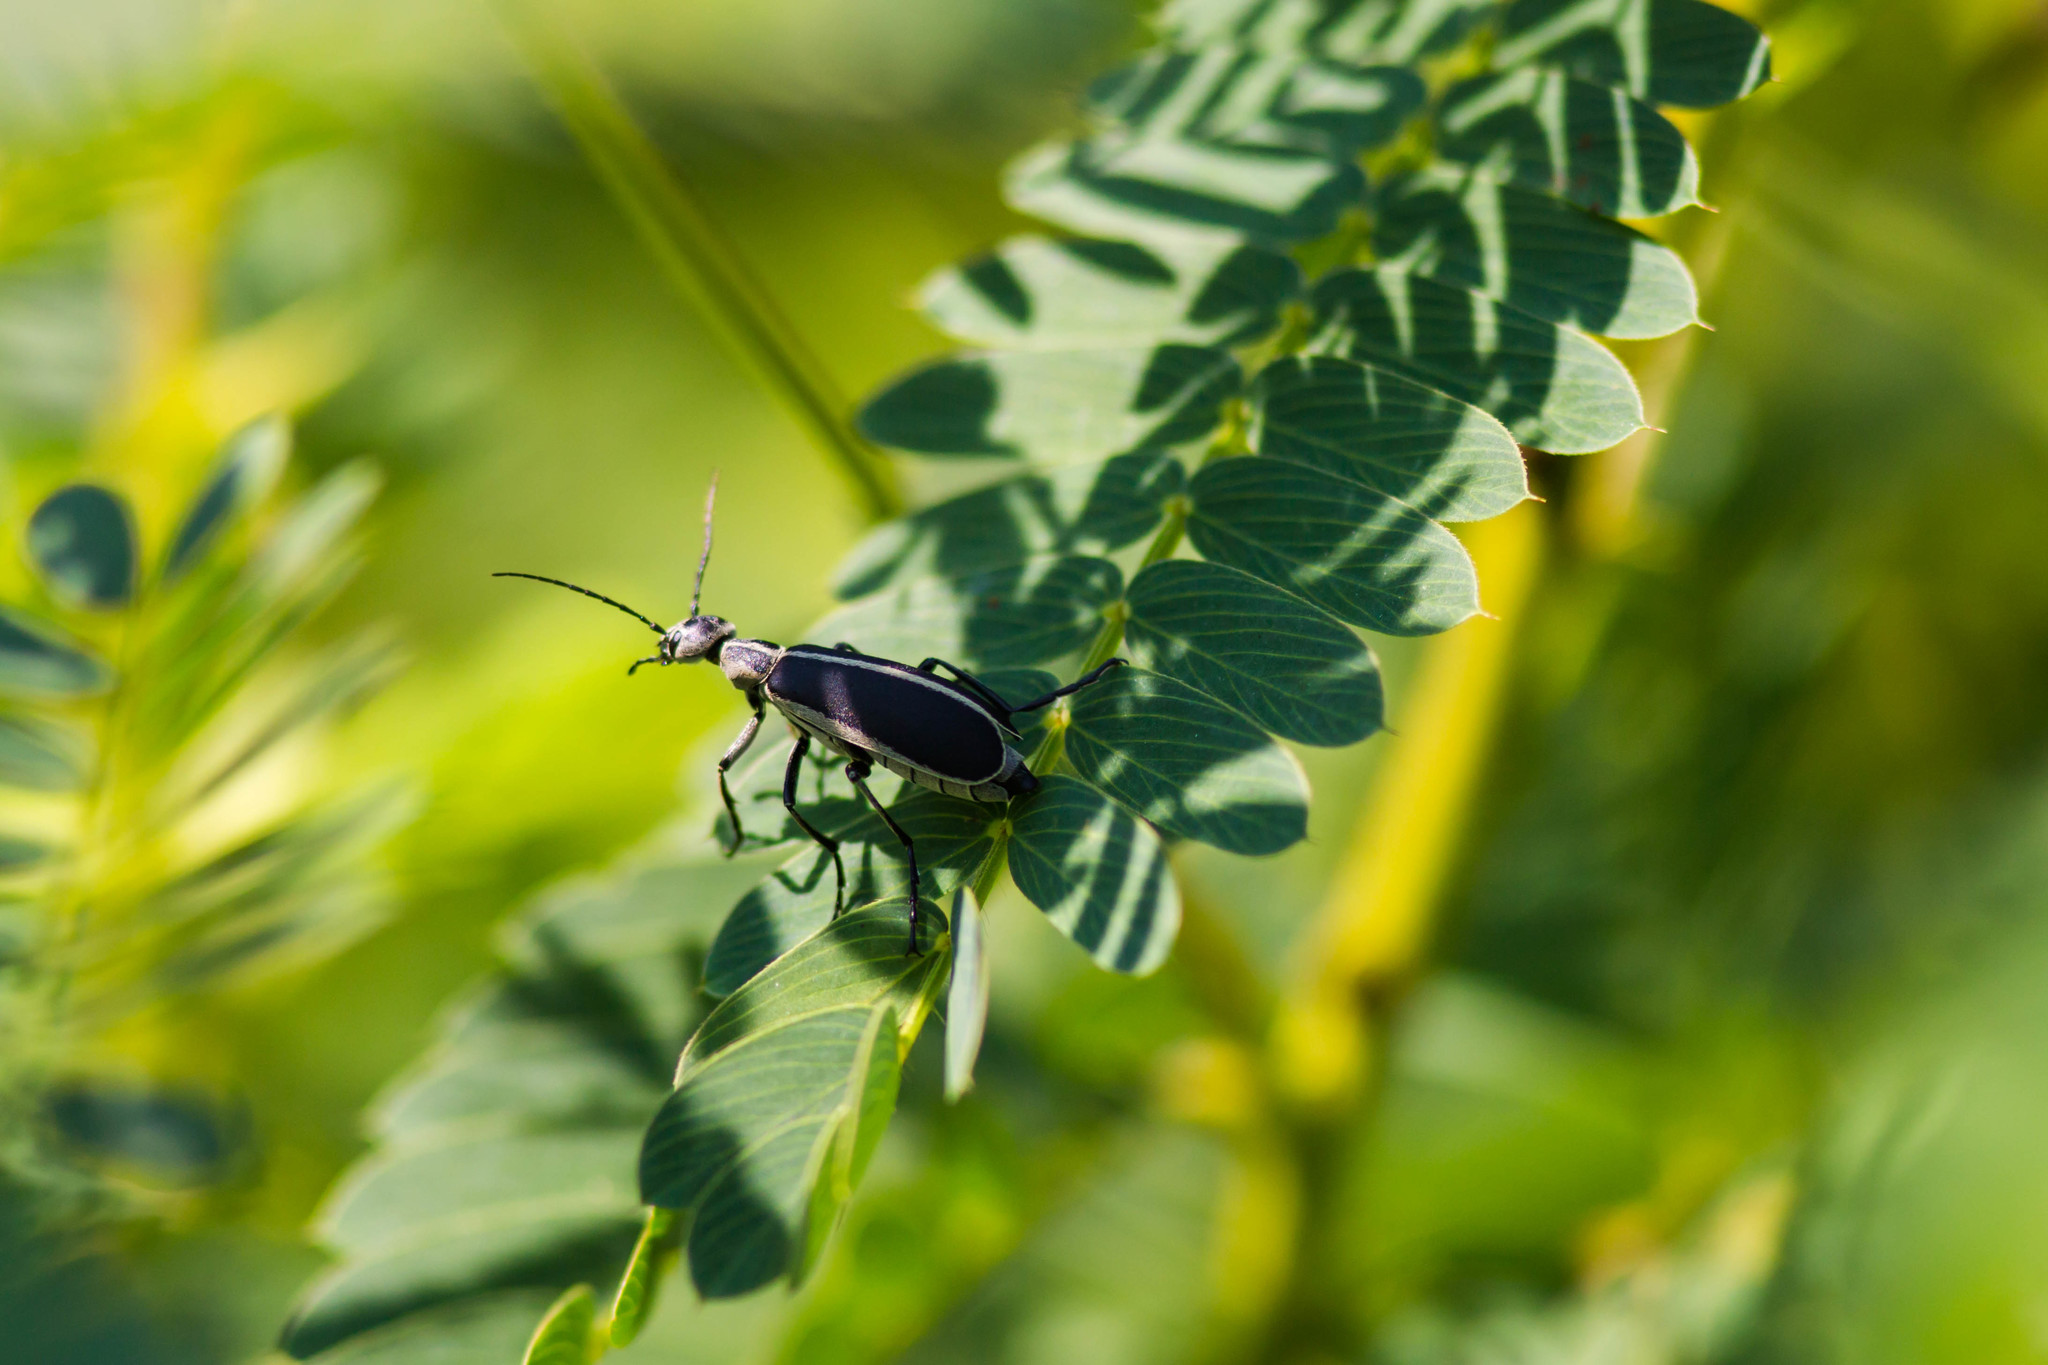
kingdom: Animalia
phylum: Arthropoda
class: Insecta
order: Coleoptera
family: Meloidae
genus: Epicauta
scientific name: Epicauta funebris
